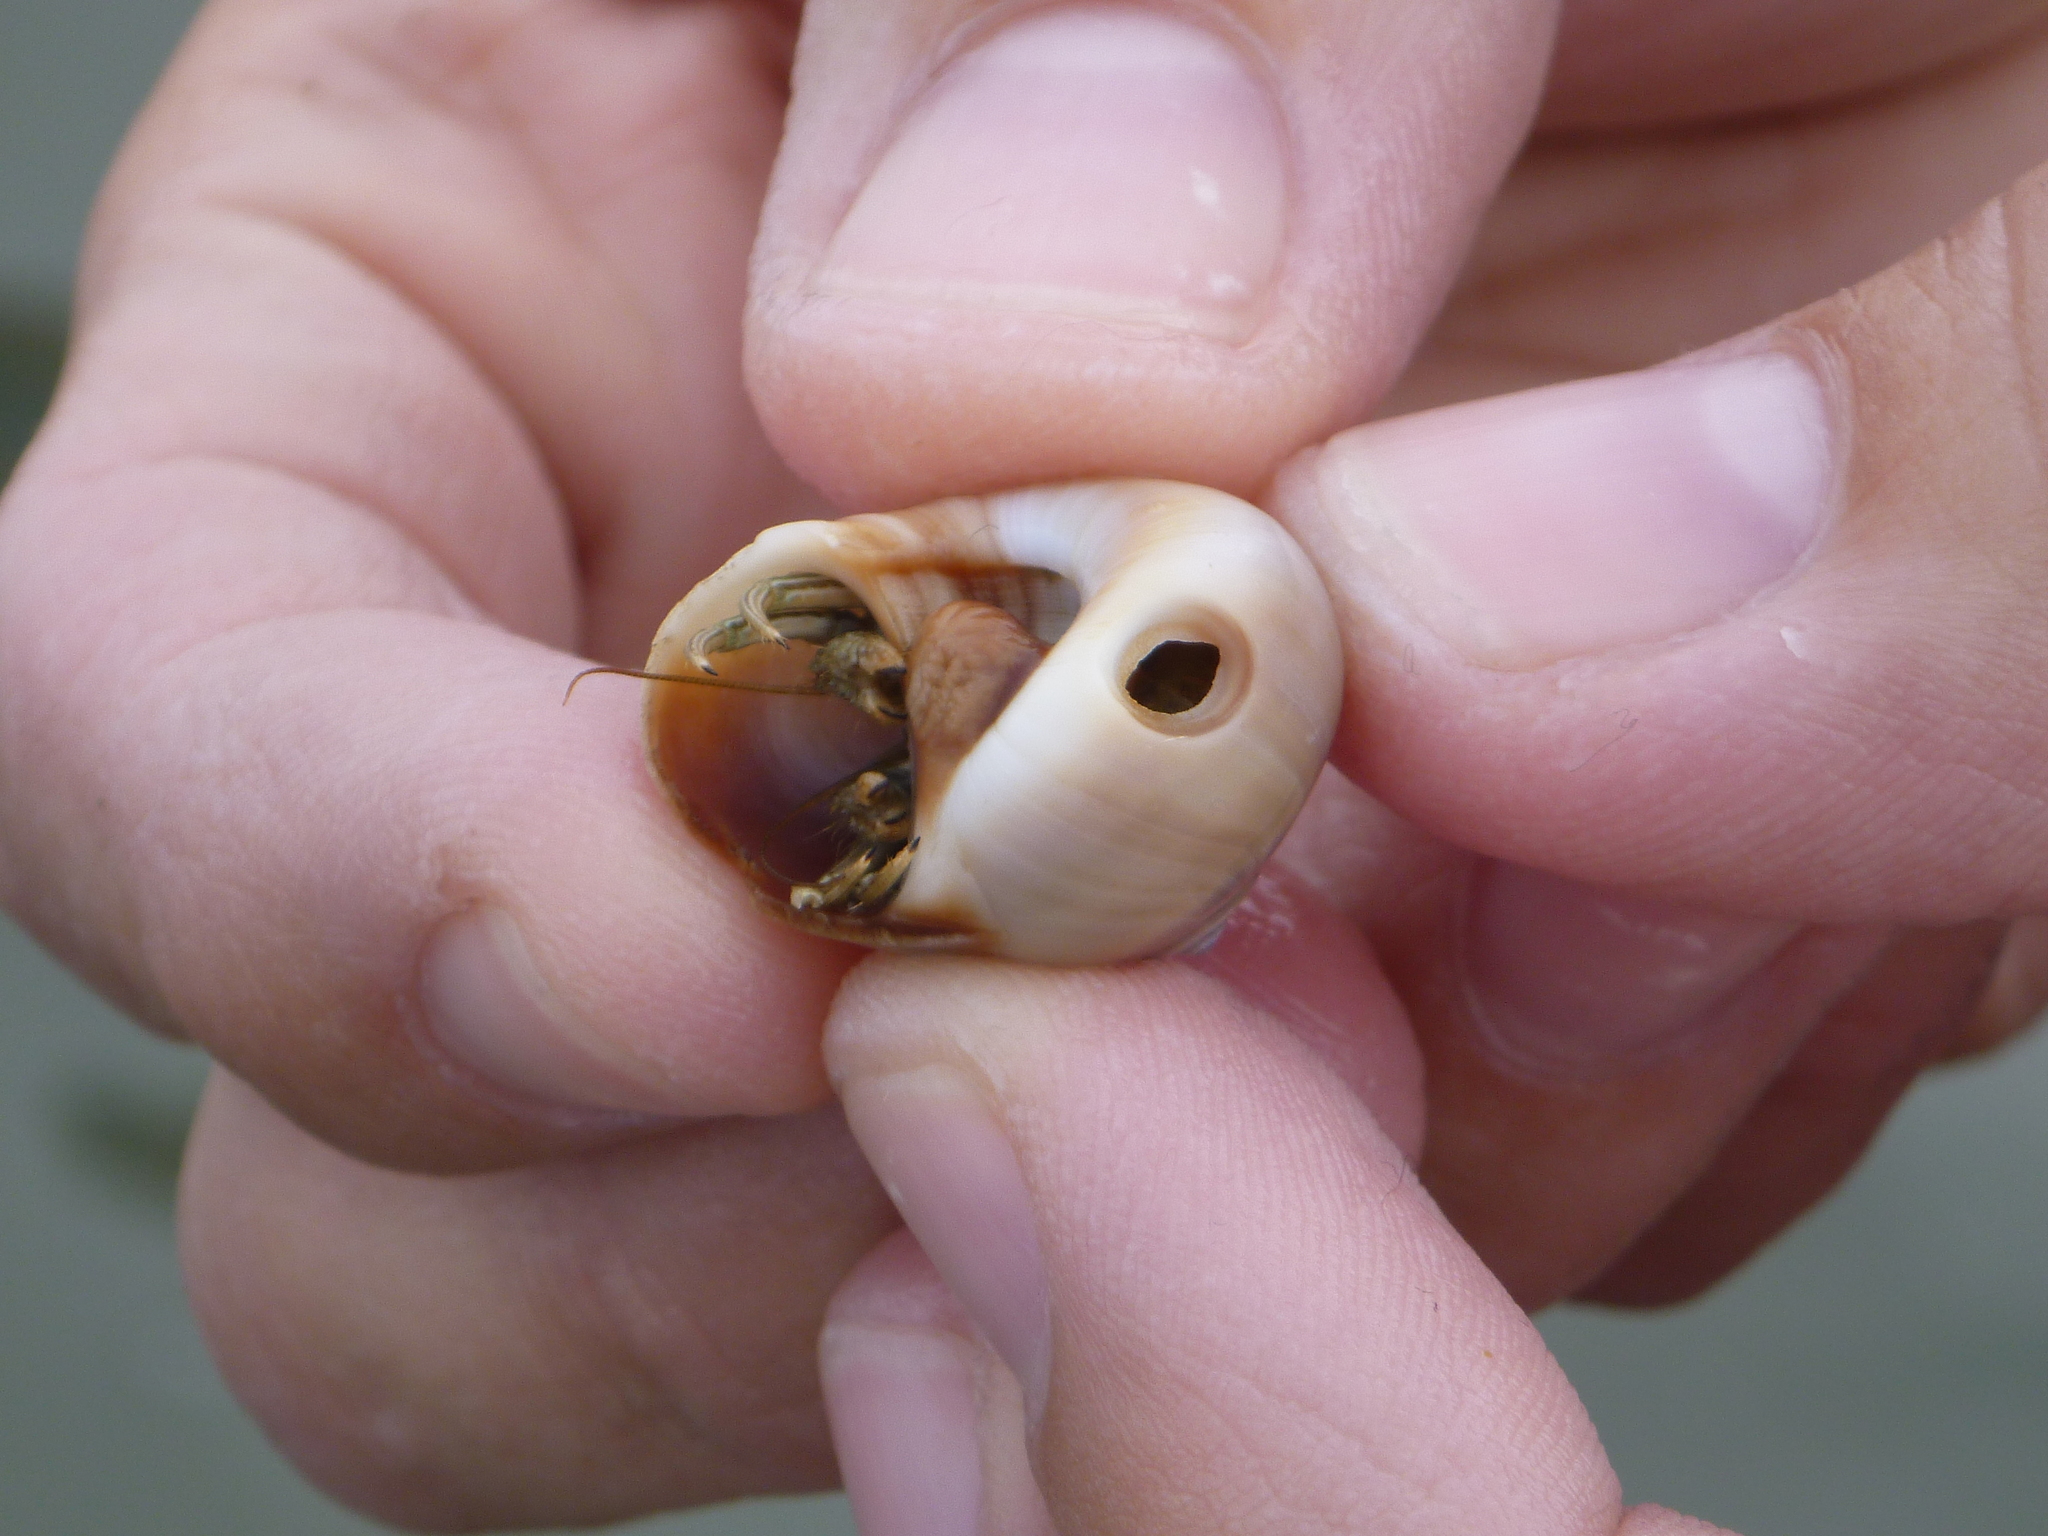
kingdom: Animalia
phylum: Arthropoda
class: Malacostraca
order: Decapoda
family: Diogenidae
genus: Clibanarius
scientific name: Clibanarius vittatus
